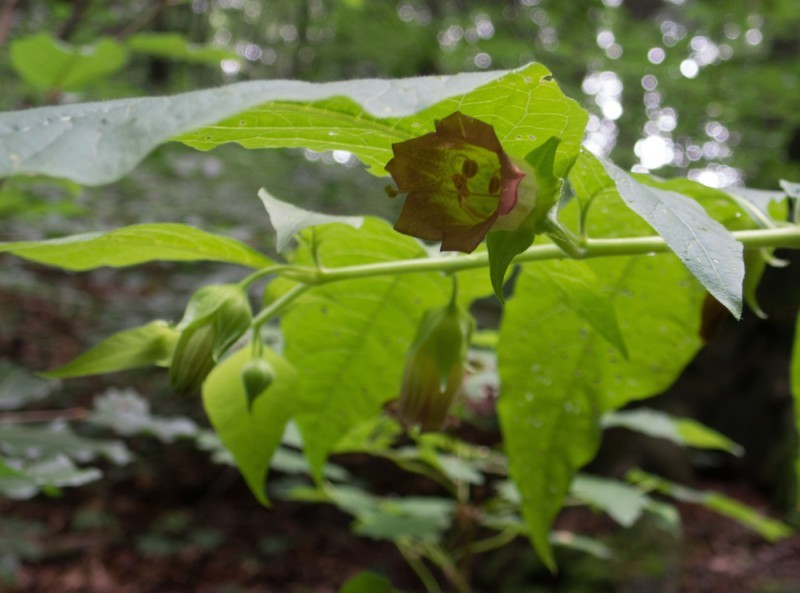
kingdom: Plantae
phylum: Tracheophyta
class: Magnoliopsida
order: Solanales
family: Solanaceae
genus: Atropa
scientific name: Atropa belladonna
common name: Deadly nightshade
